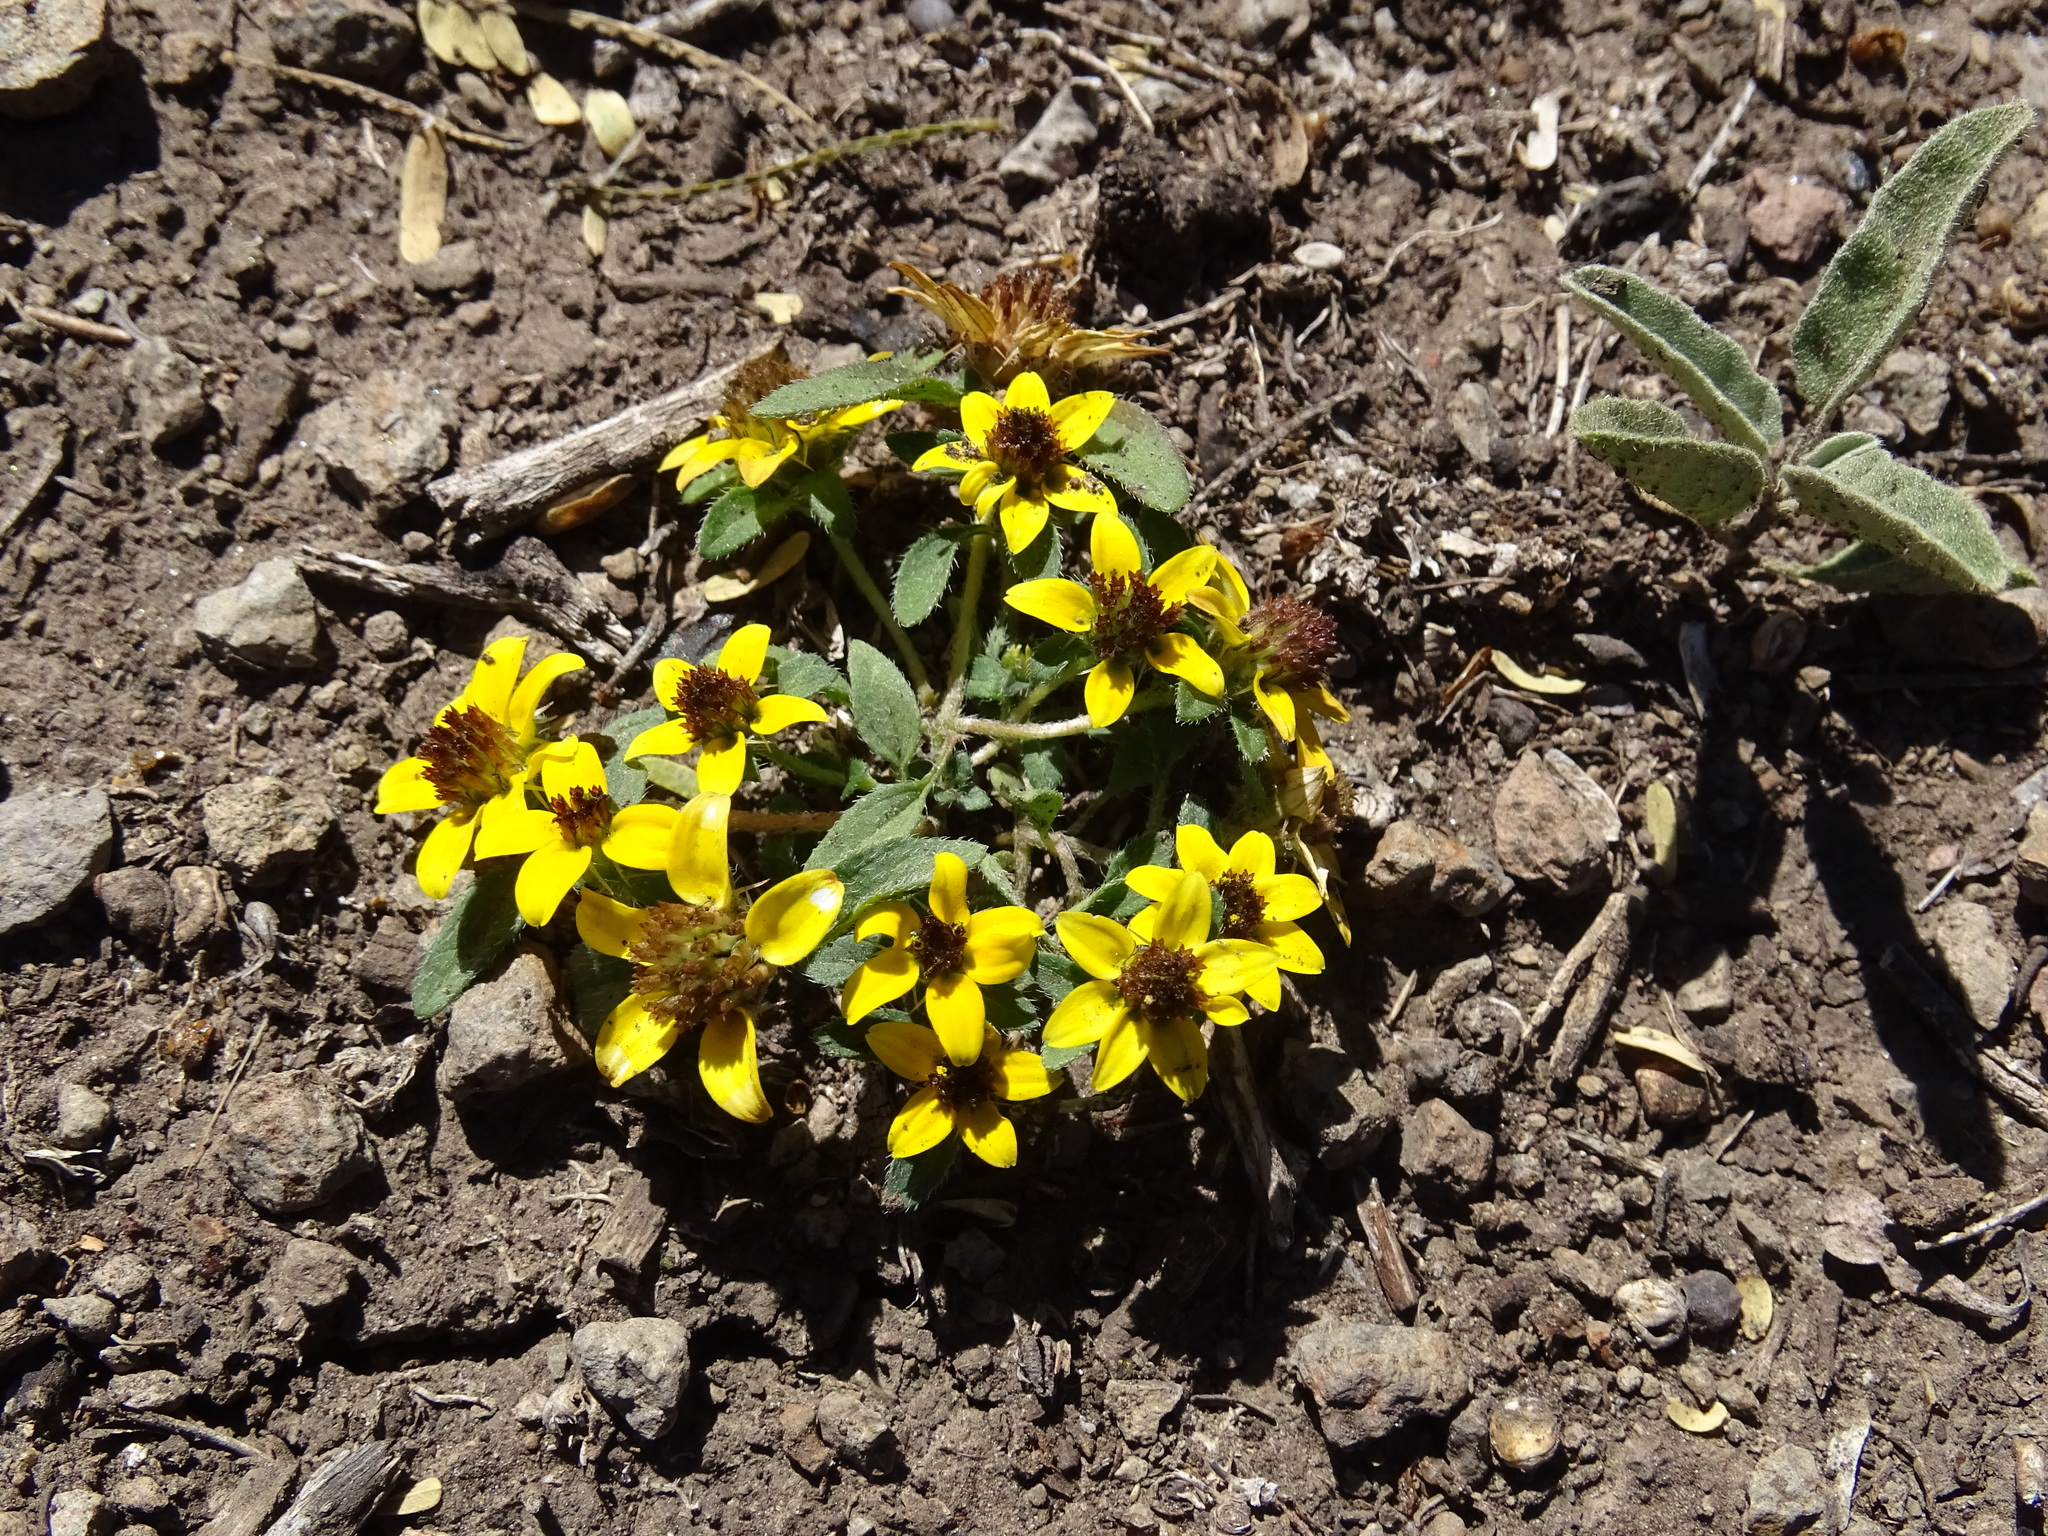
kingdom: Plantae
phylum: Tracheophyta
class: Magnoliopsida
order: Asterales
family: Asteraceae
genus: Sanvitalia
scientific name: Sanvitalia procumbens
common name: Mexican creeping zinnia
